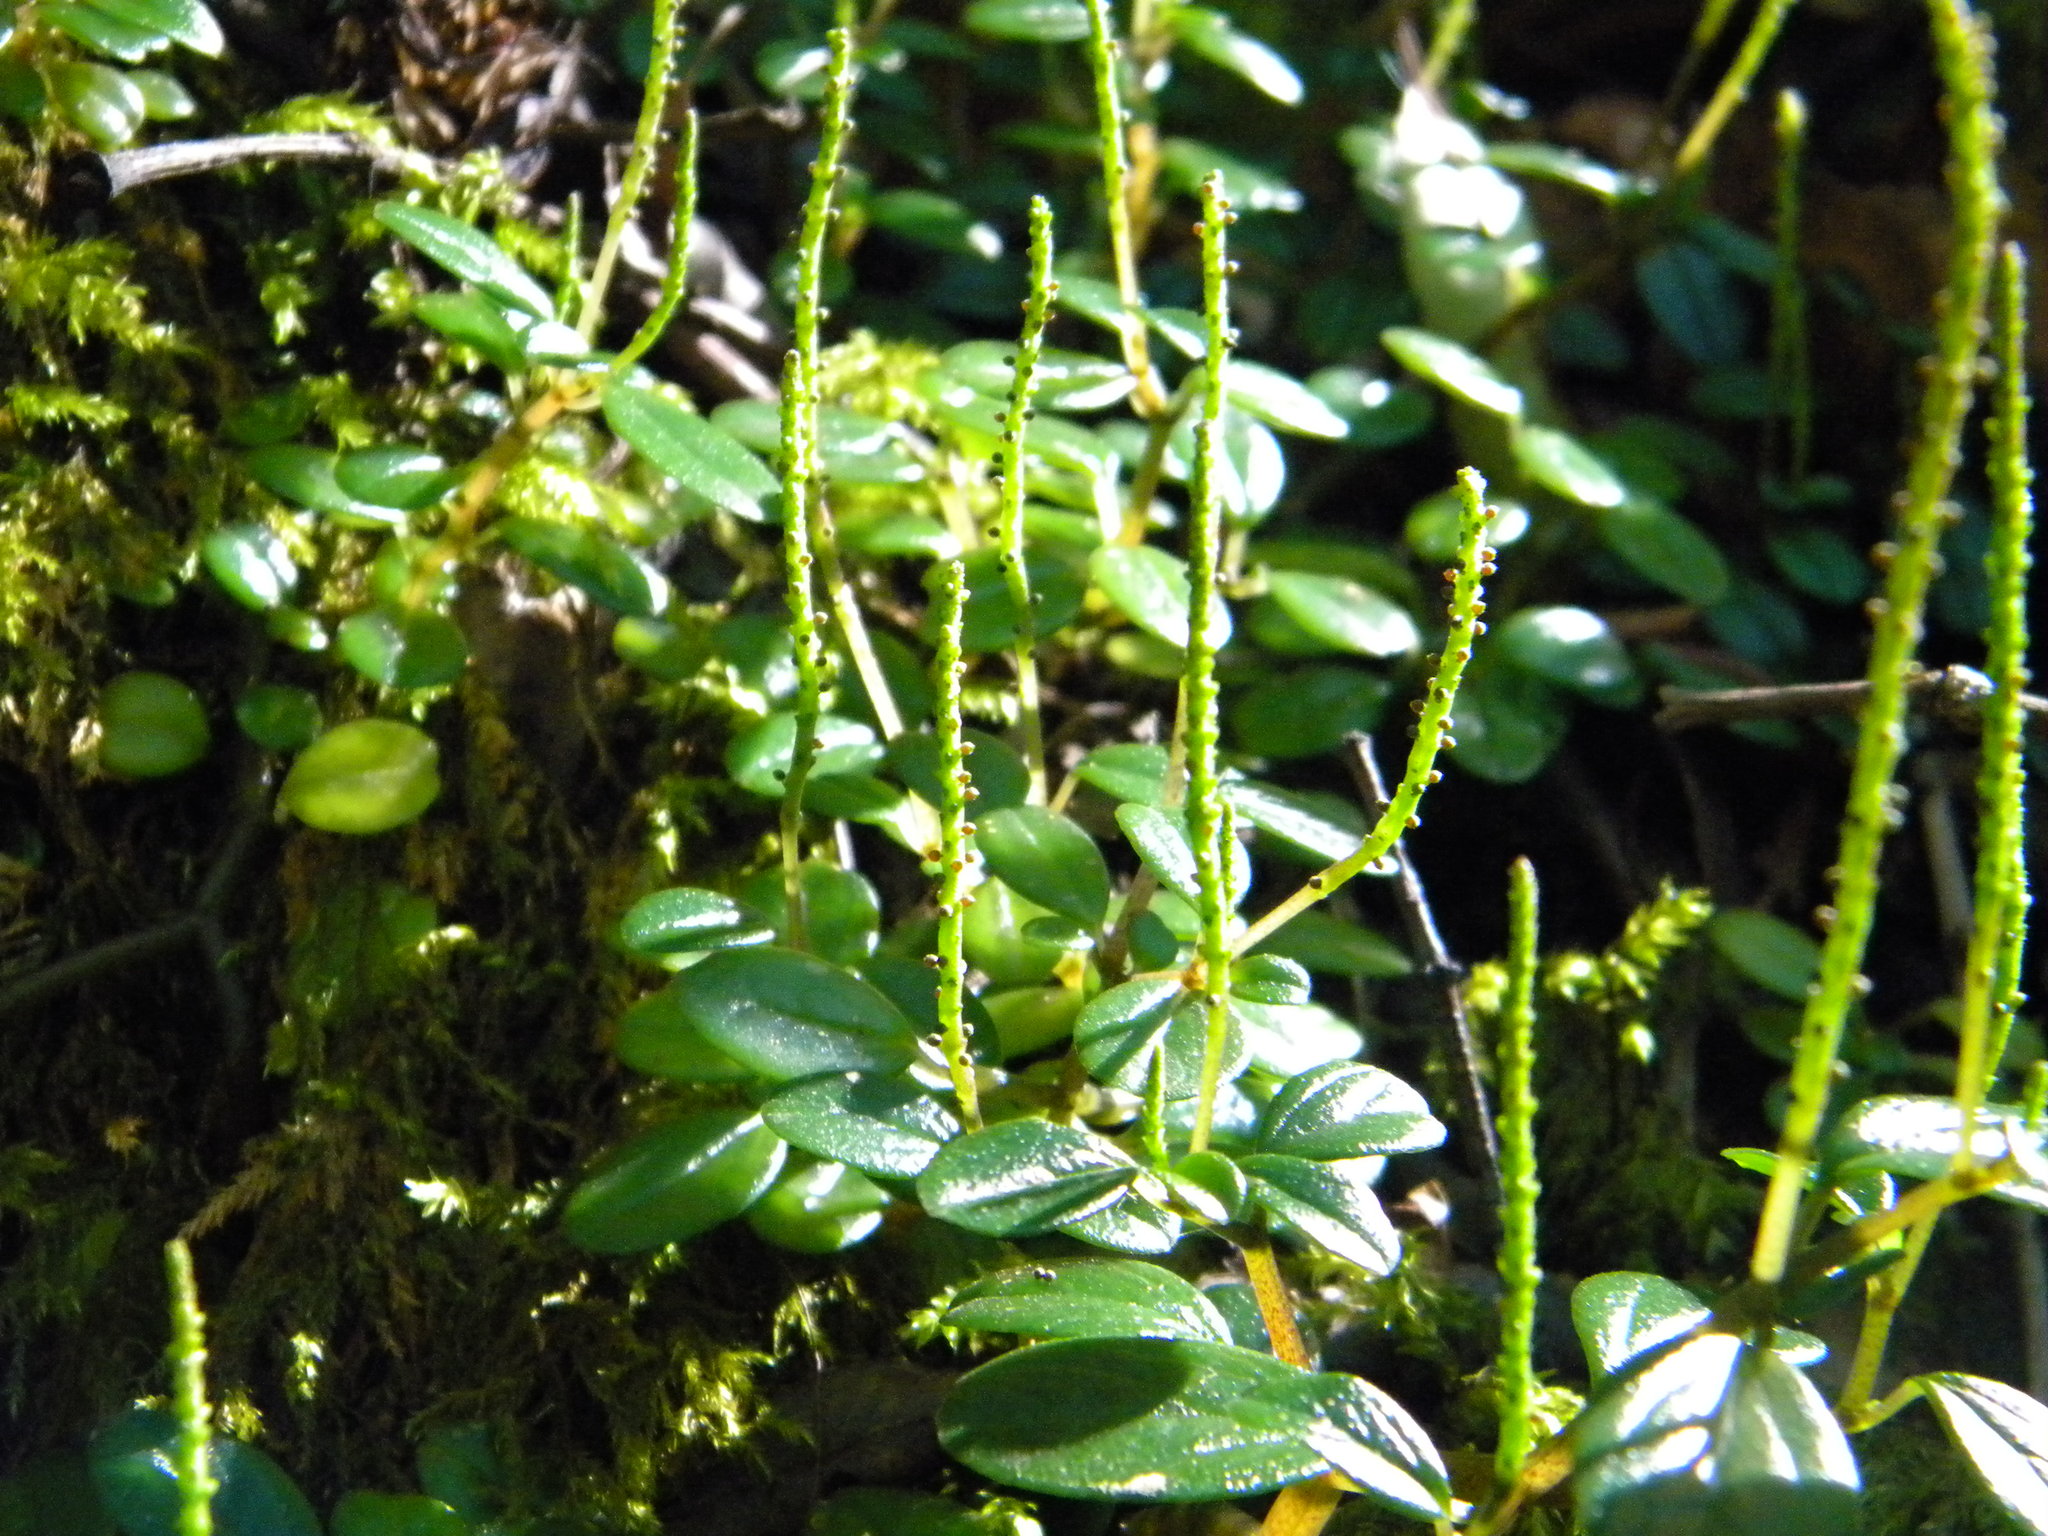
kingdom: Plantae
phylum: Tracheophyta
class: Magnoliopsida
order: Piperales
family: Piperaceae
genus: Peperomia
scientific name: Peperomia retusa
